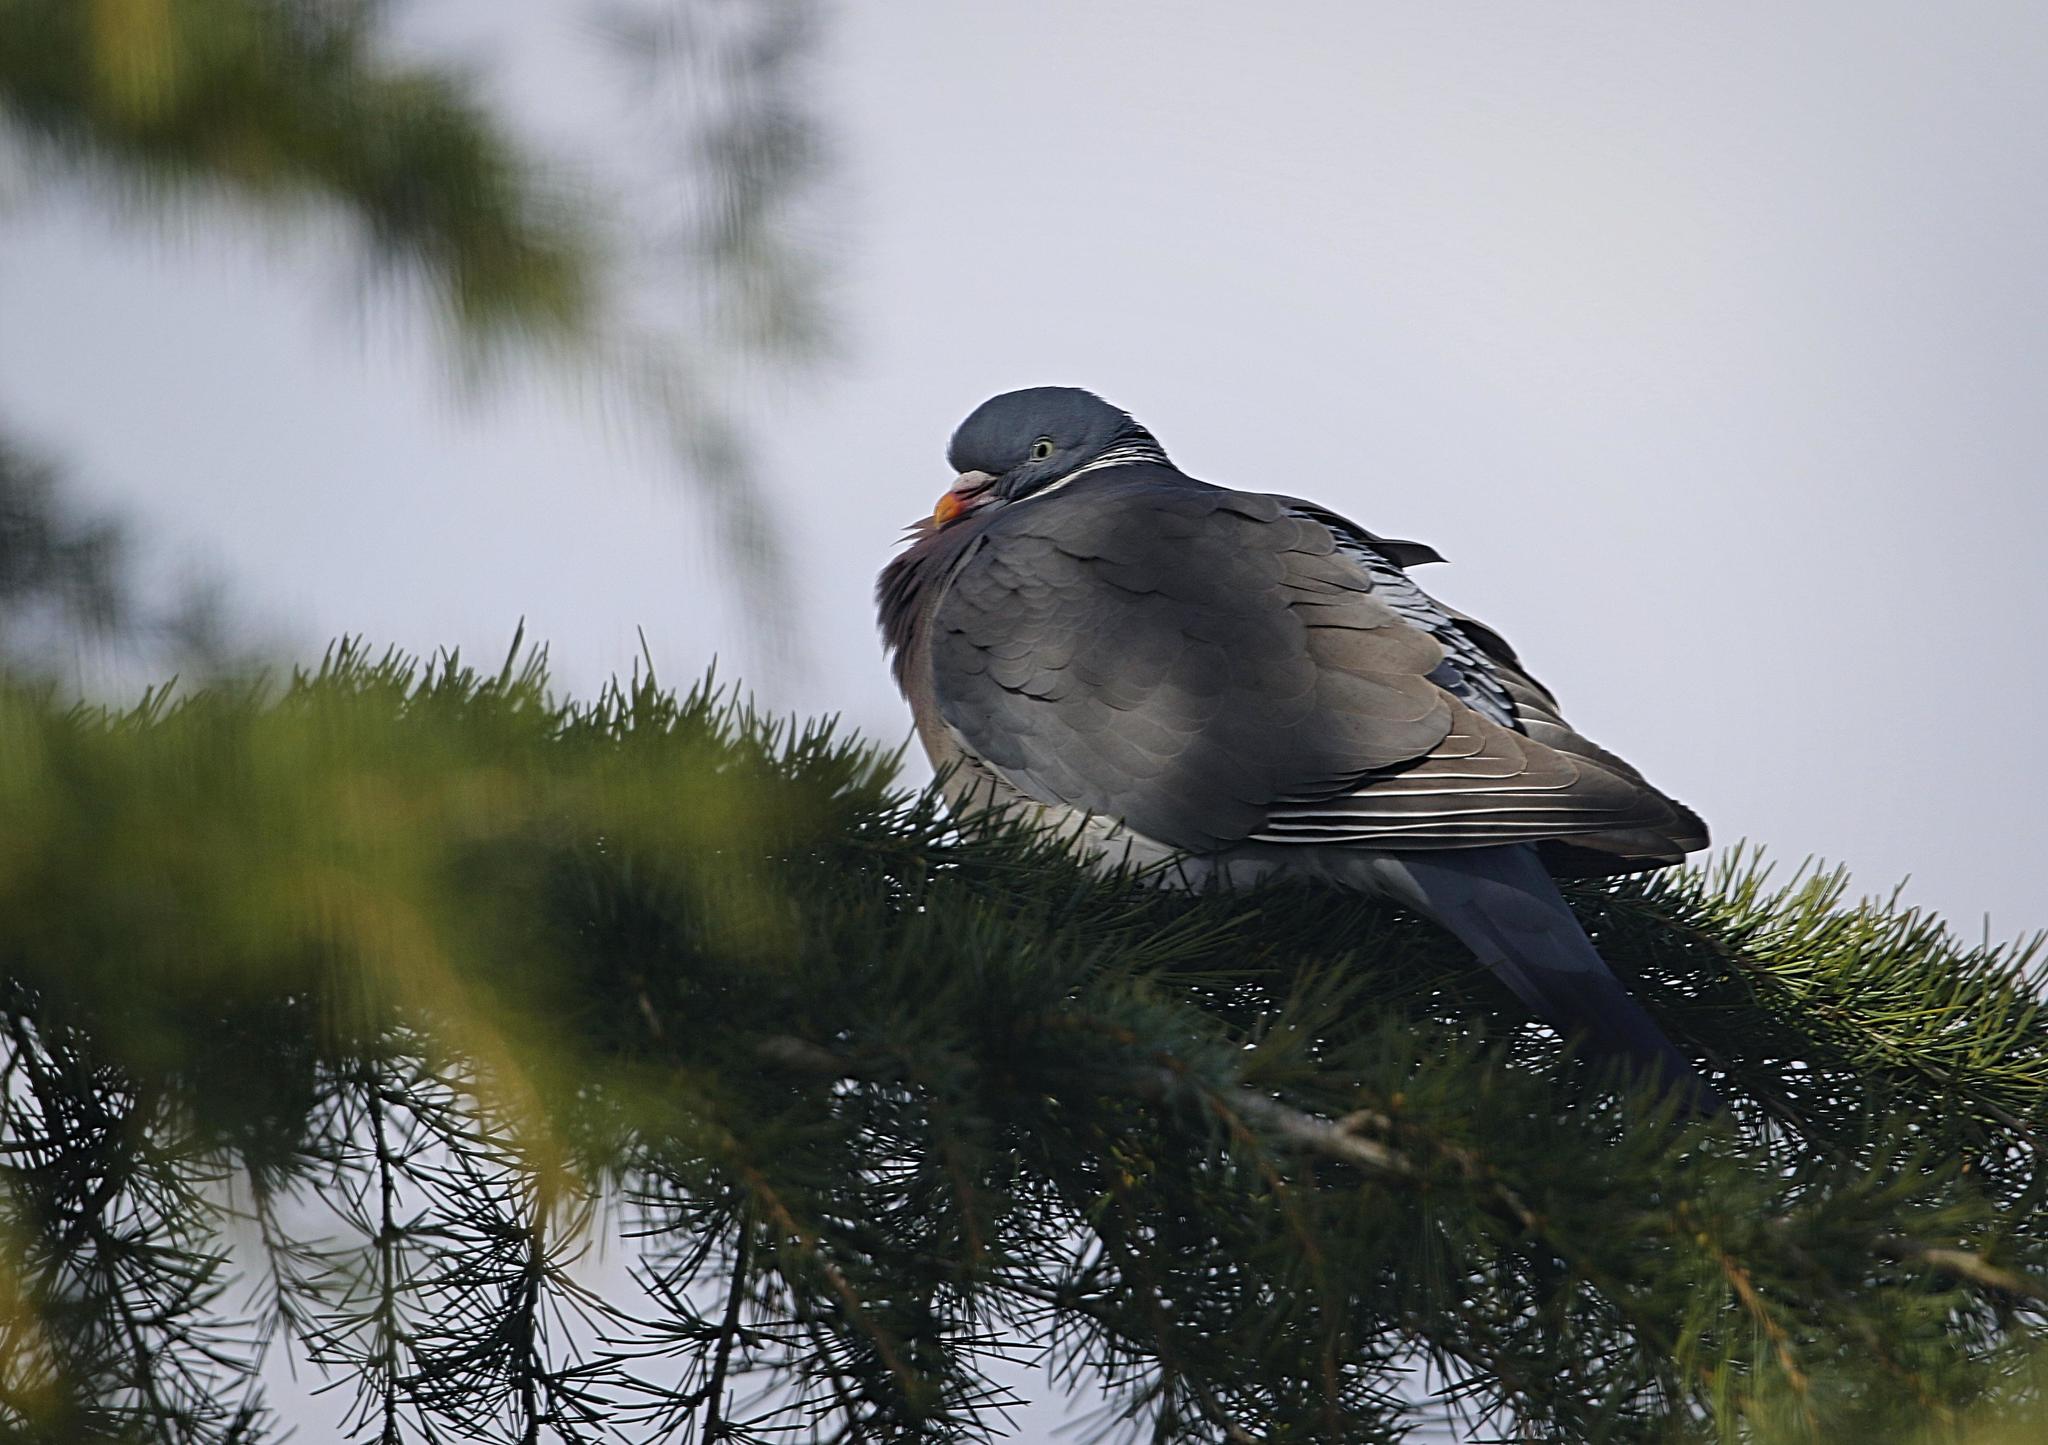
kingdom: Animalia
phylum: Chordata
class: Aves
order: Columbiformes
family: Columbidae
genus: Columba
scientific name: Columba palumbus
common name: Common wood pigeon
